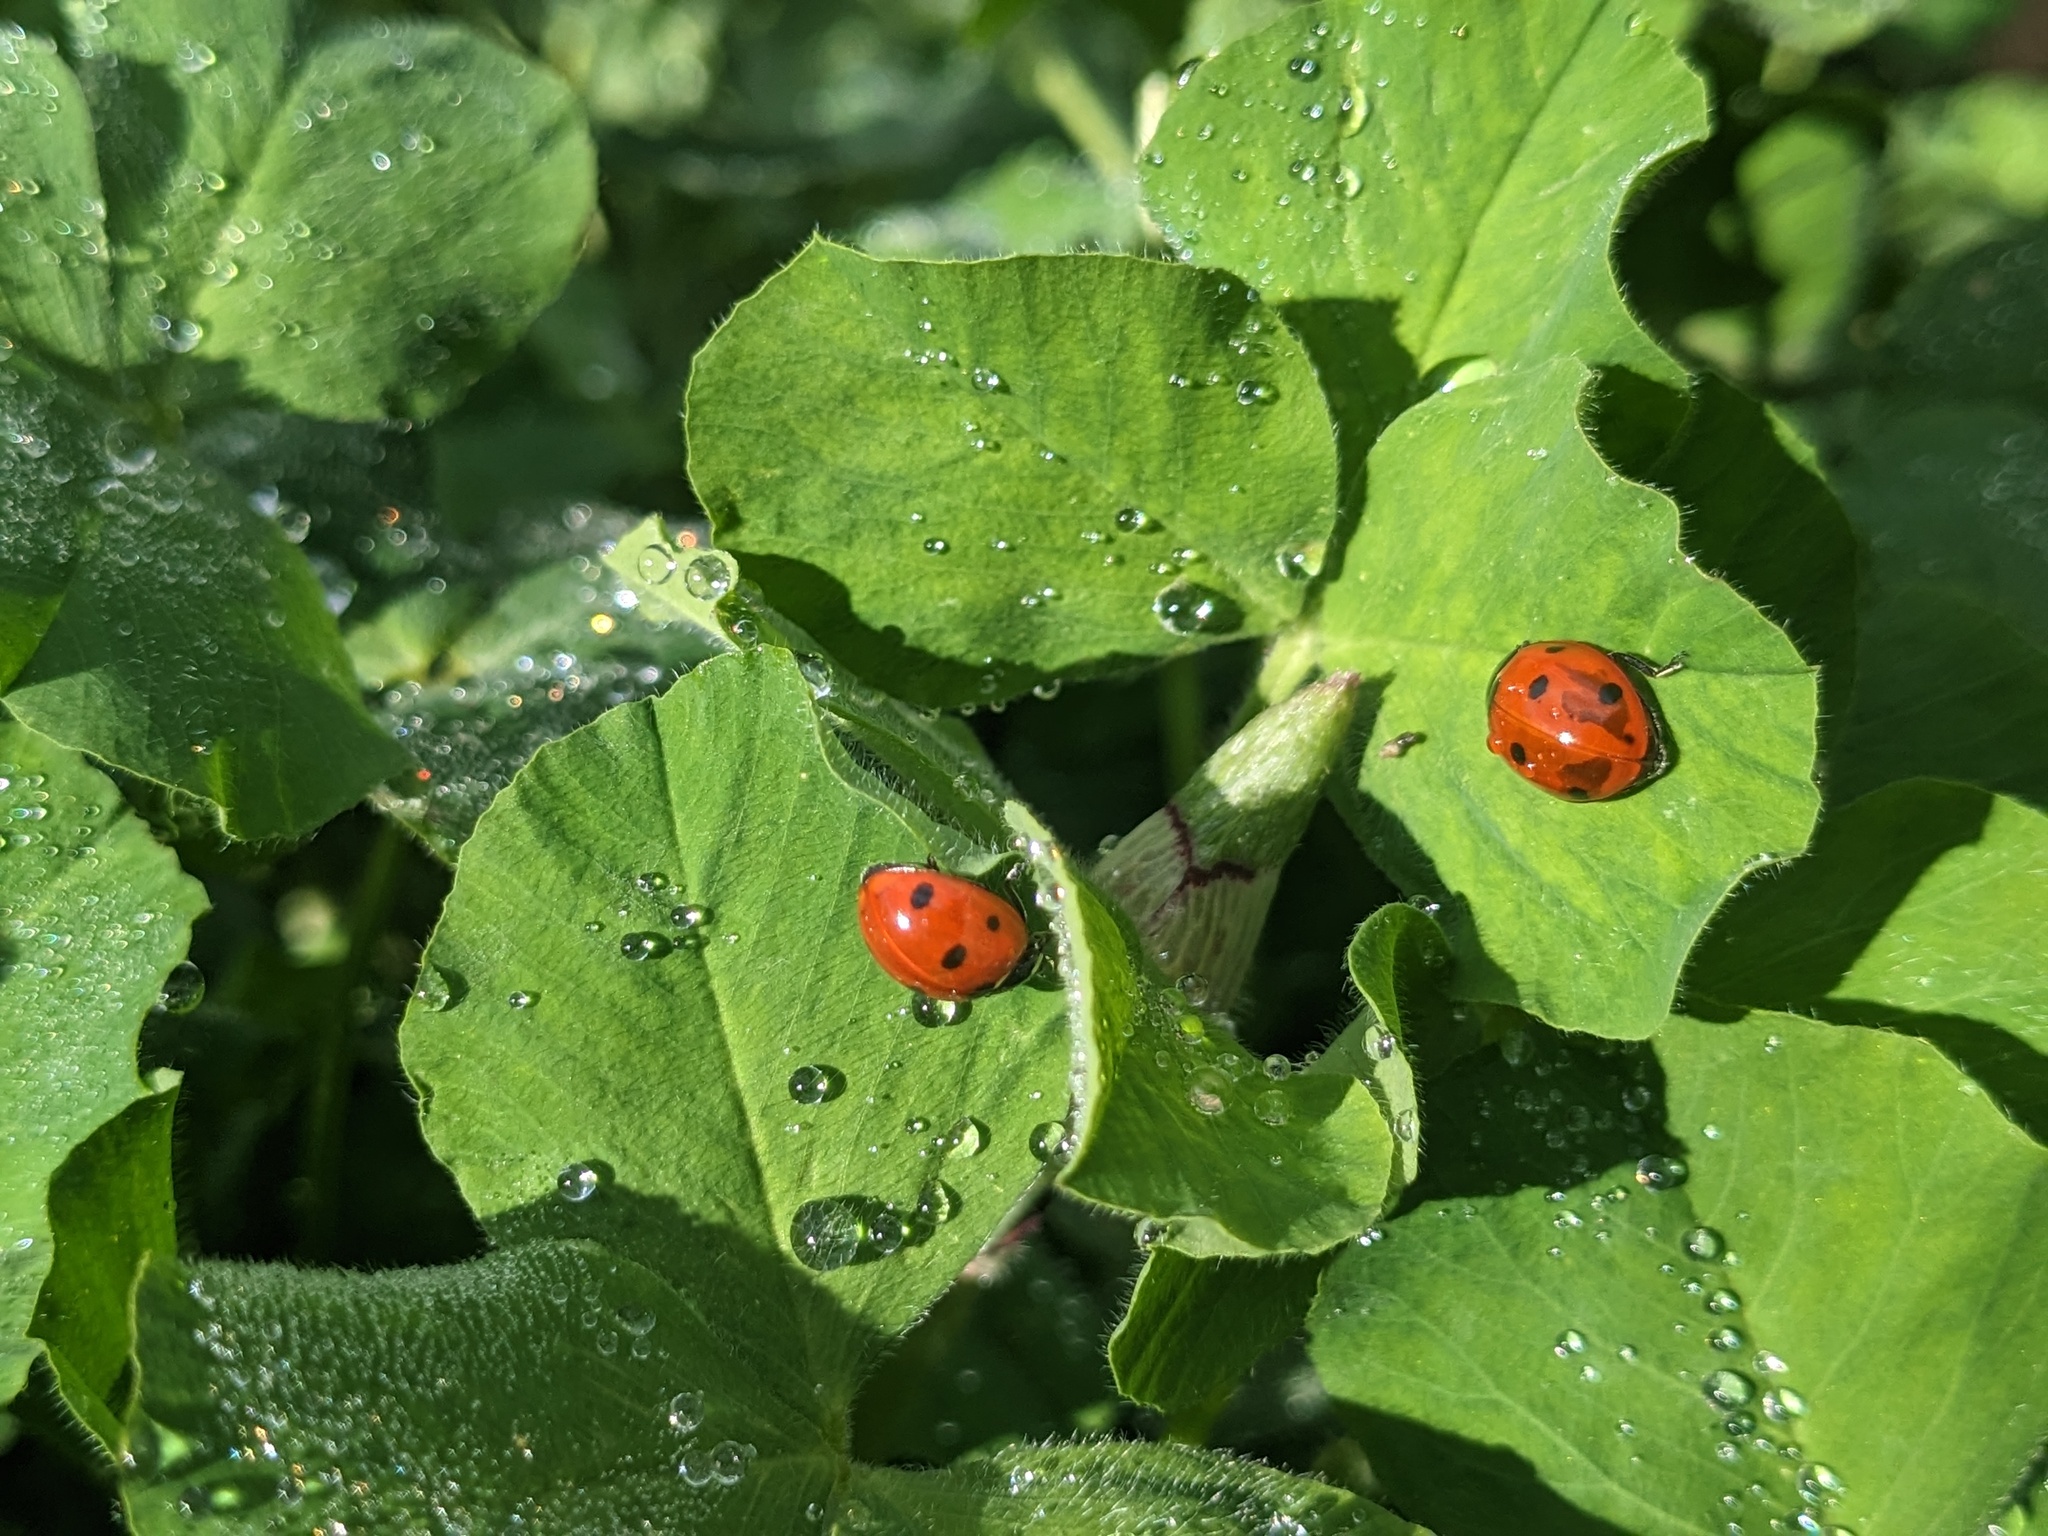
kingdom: Animalia
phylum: Arthropoda
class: Insecta
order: Coleoptera
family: Coccinellidae
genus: Coccinella
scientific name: Coccinella septempunctata
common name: Sevenspotted lady beetle
